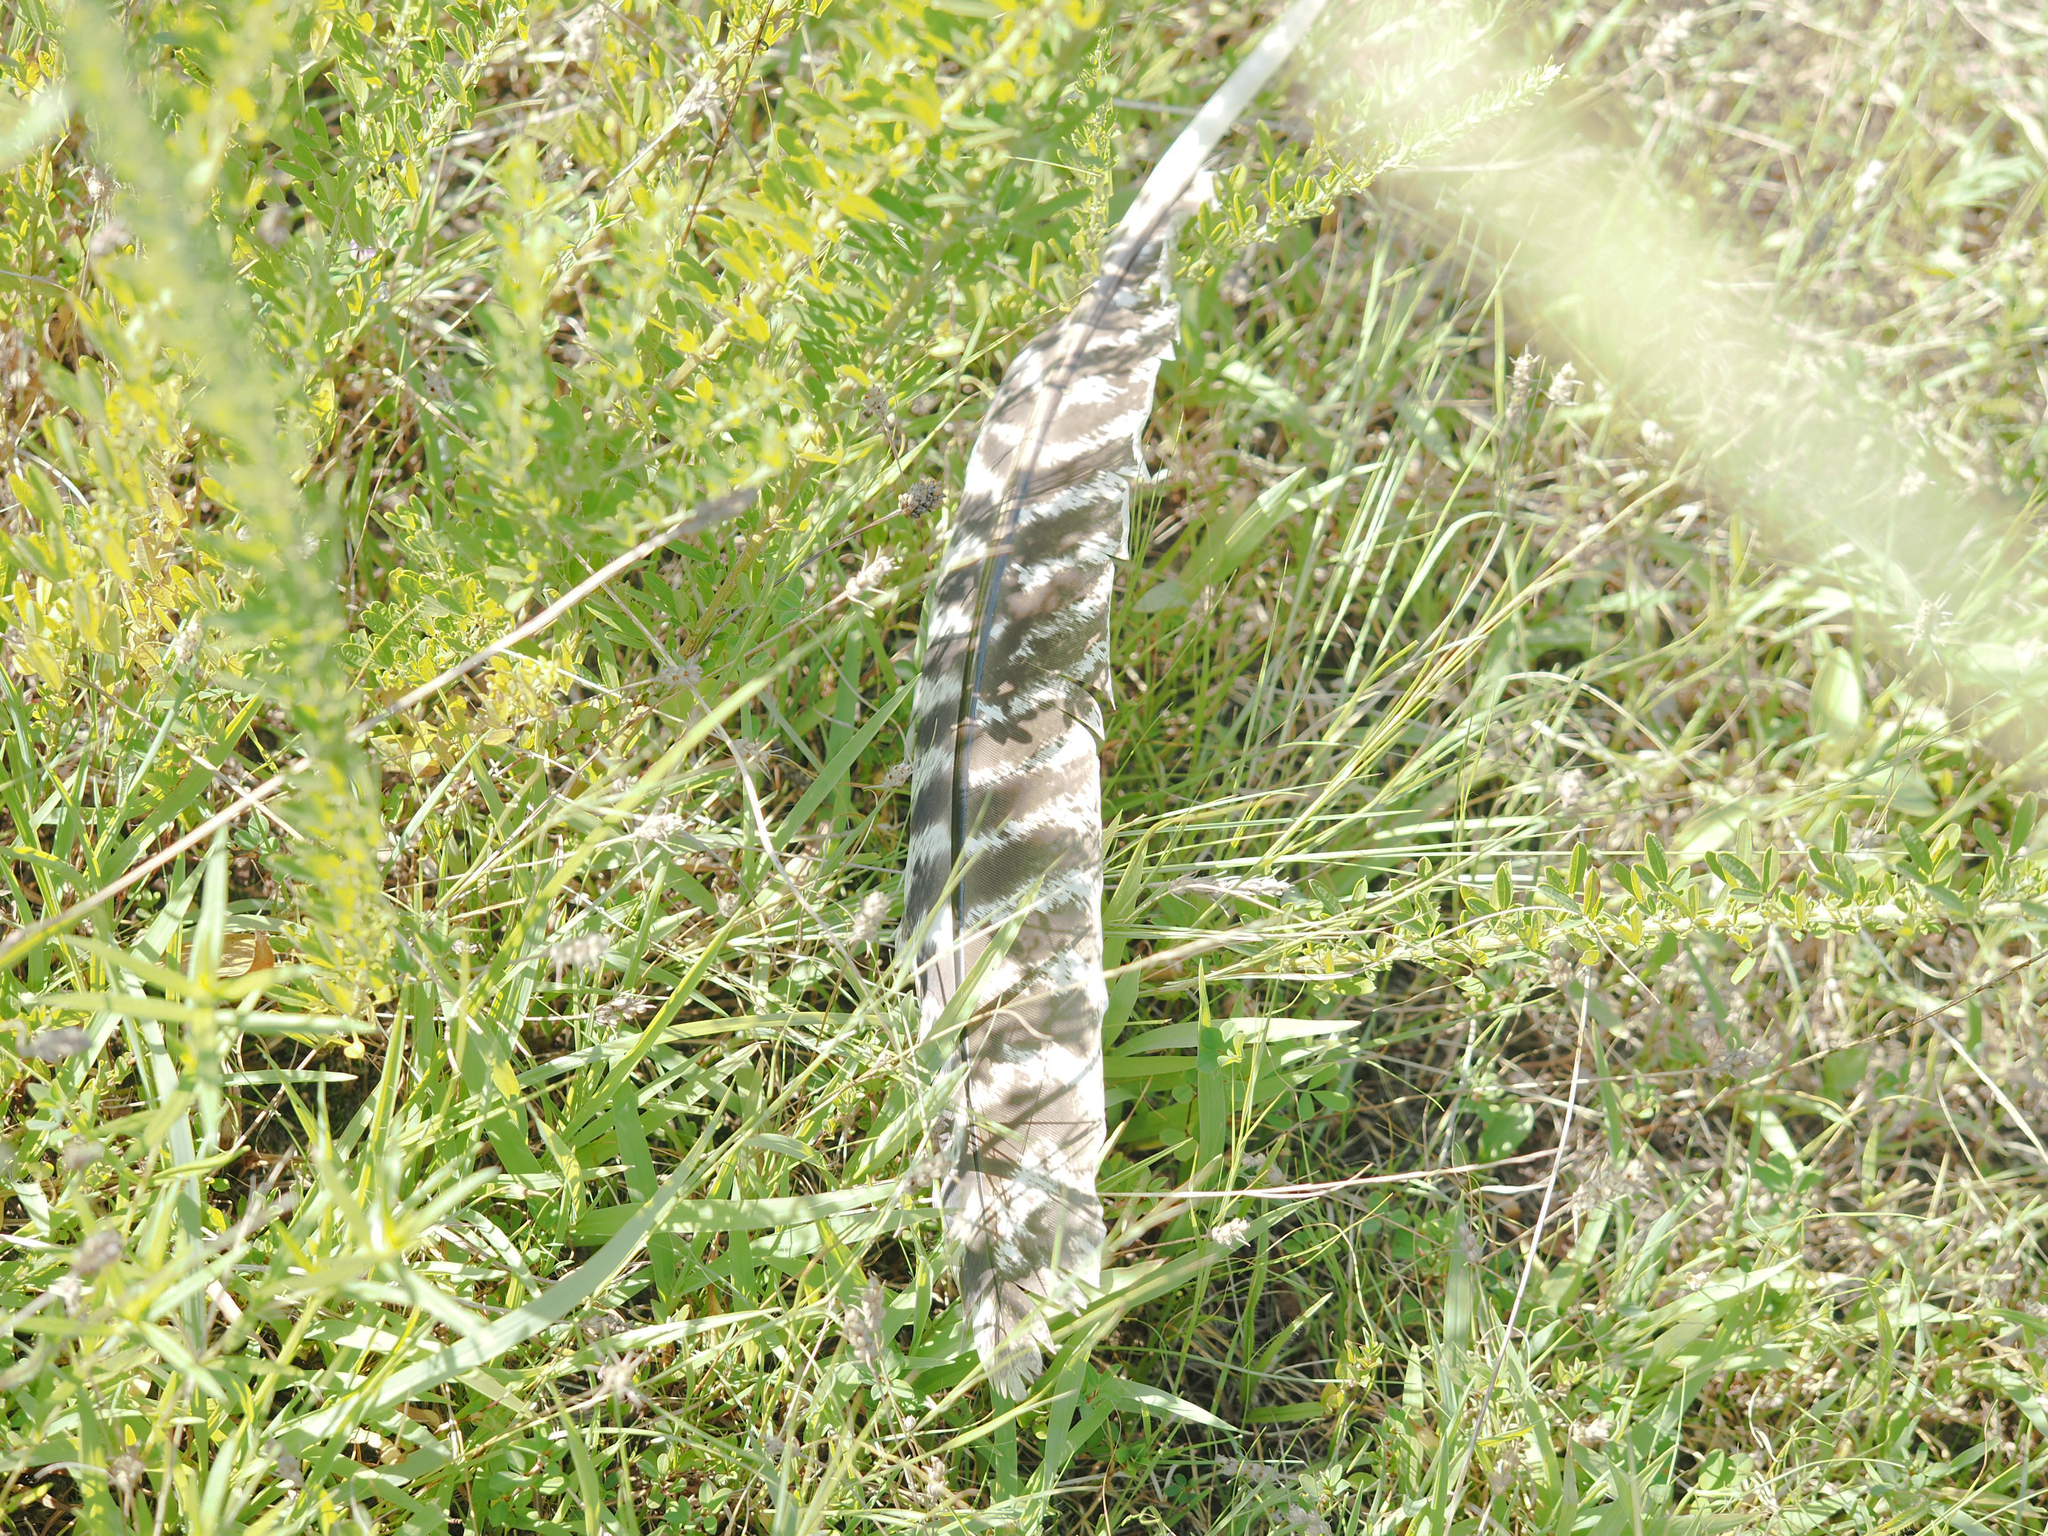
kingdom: Animalia
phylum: Chordata
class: Aves
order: Galliformes
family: Phasianidae
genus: Meleagris
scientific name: Meleagris gallopavo
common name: Wild turkey
